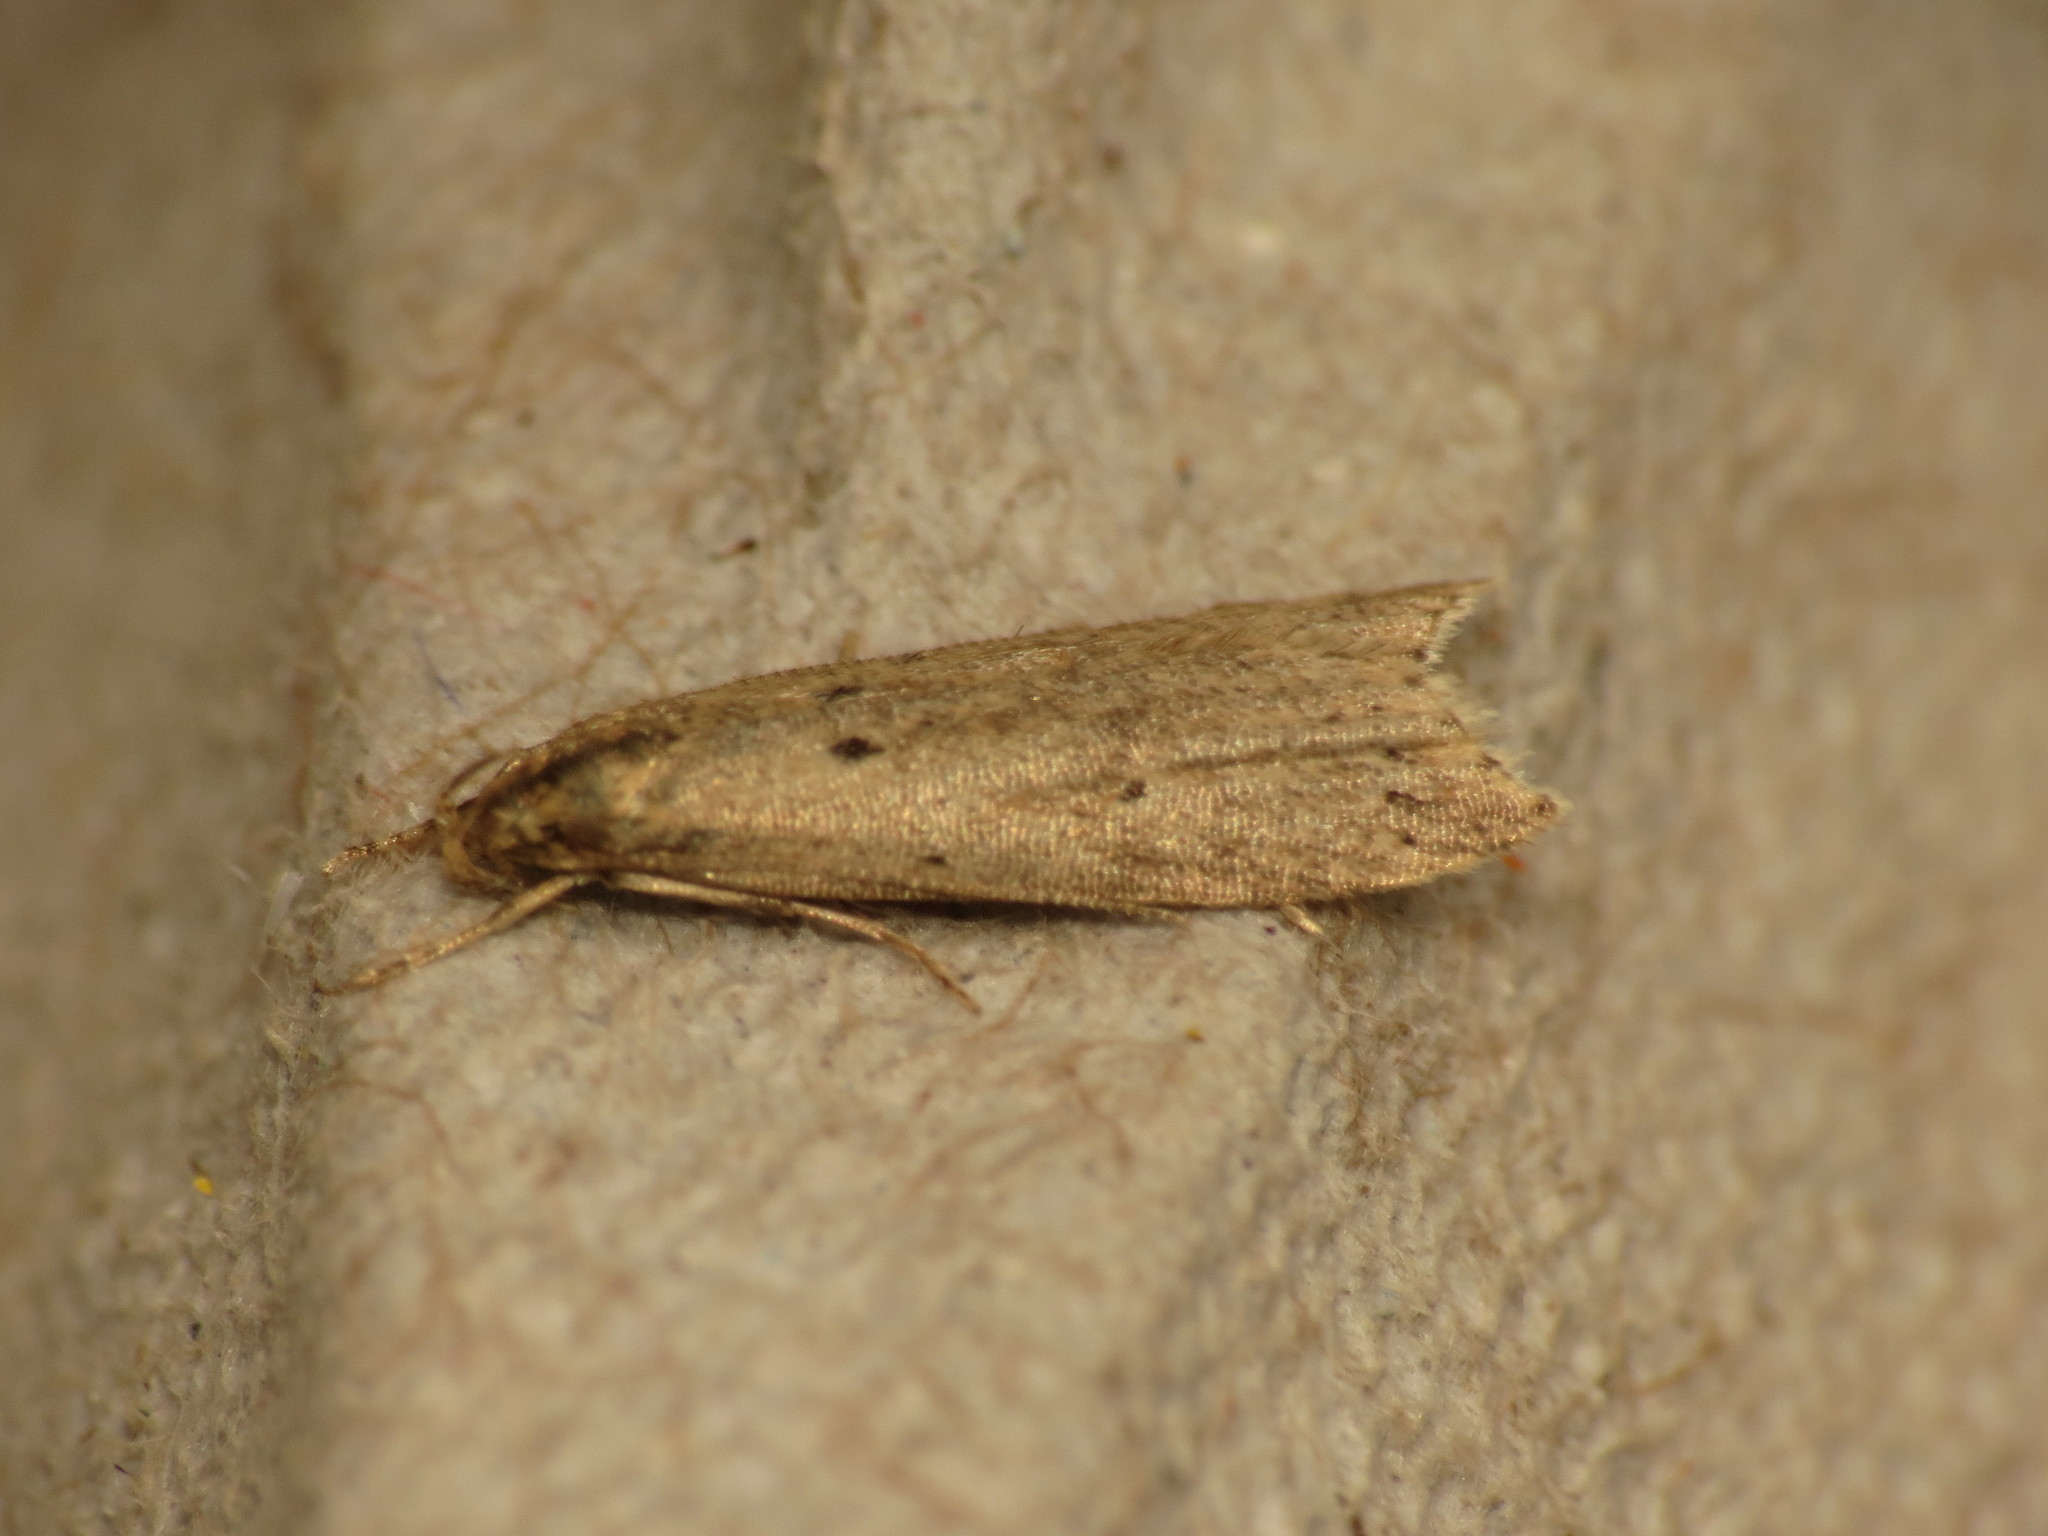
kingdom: Animalia
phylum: Arthropoda
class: Insecta
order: Lepidoptera
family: Gelechiidae
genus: Brachmia
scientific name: Brachmia inornatella
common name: Fen crest
